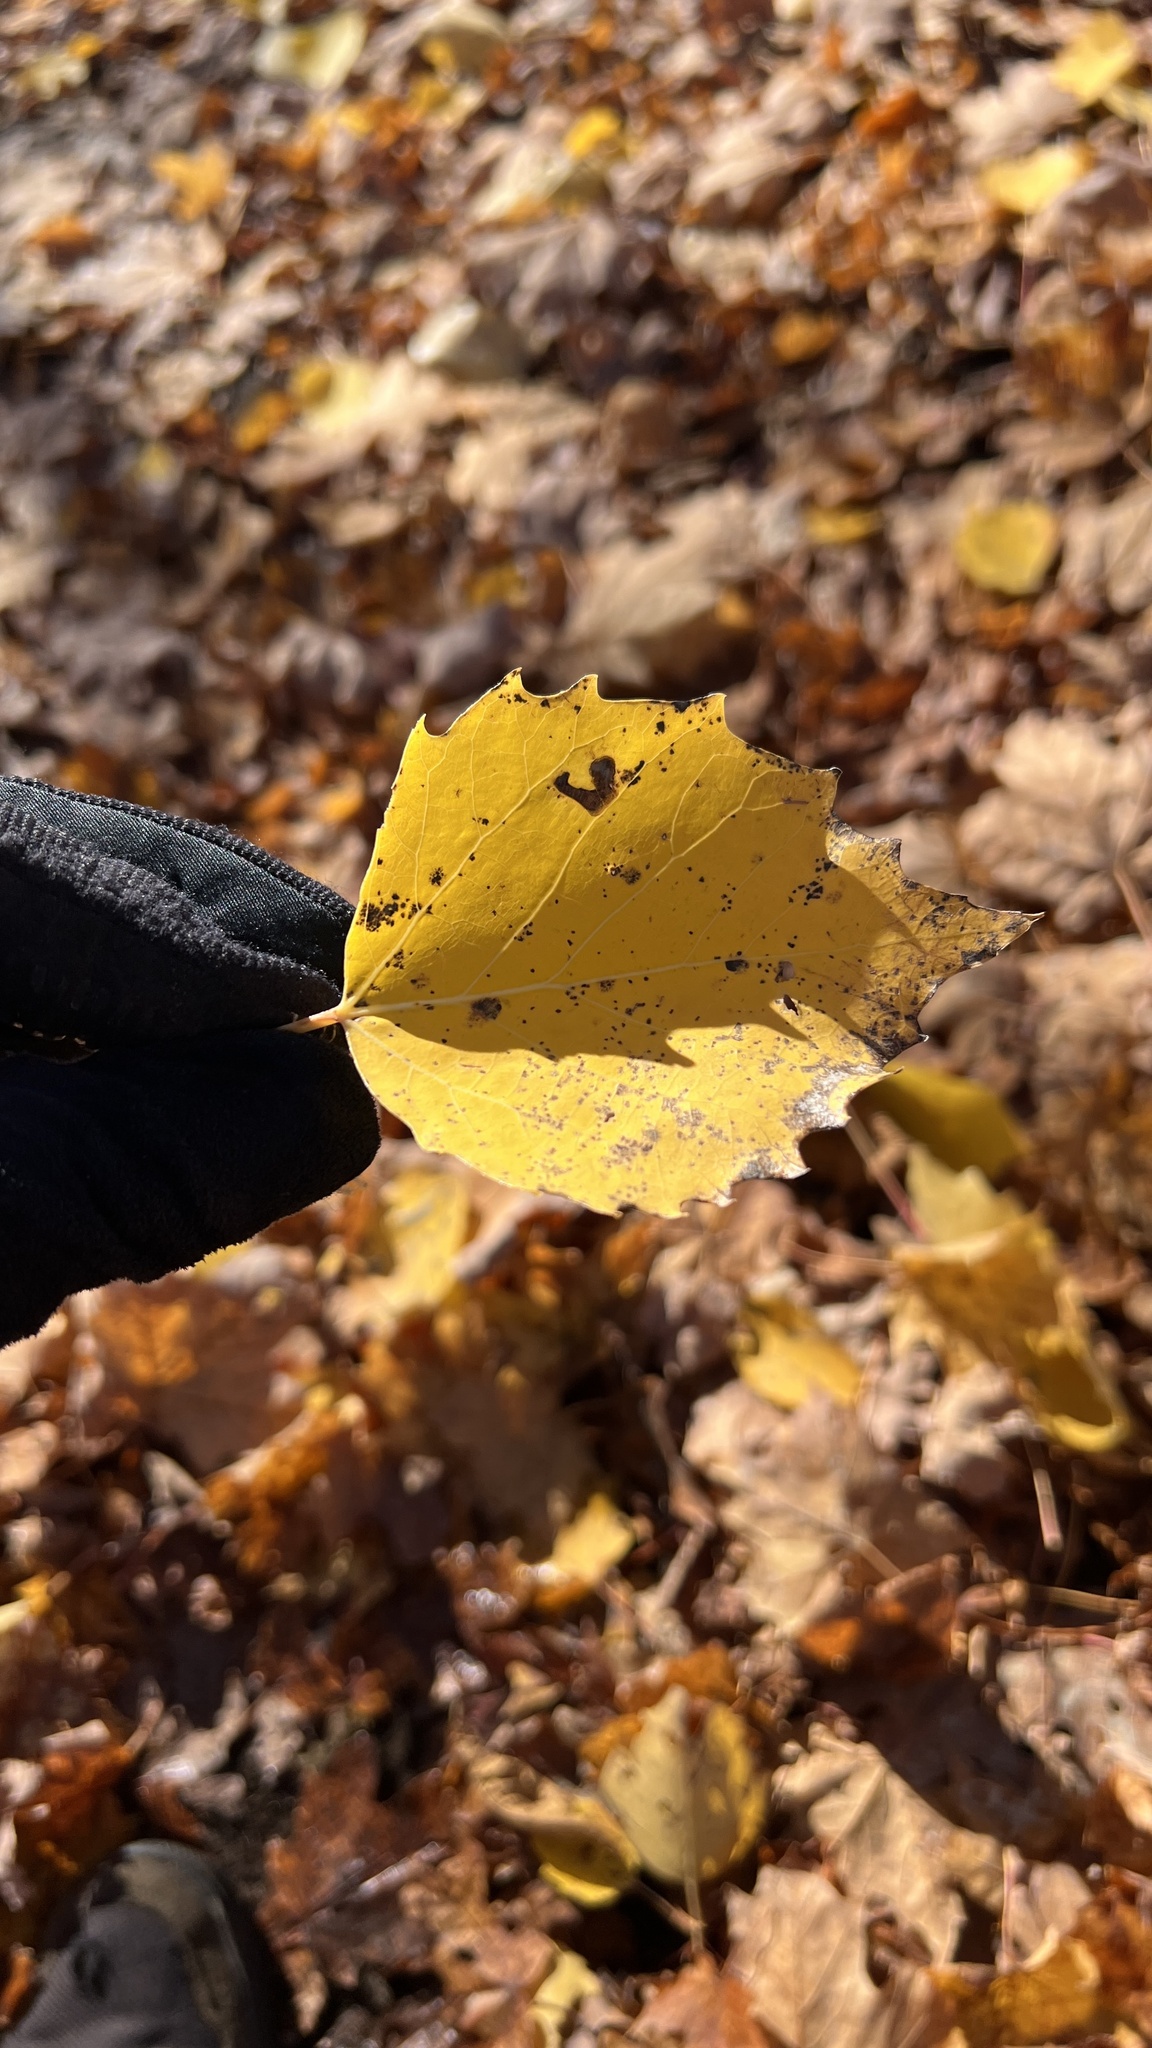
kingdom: Plantae
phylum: Tracheophyta
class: Magnoliopsida
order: Malpighiales
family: Salicaceae
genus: Populus
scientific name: Populus grandidentata
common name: Bigtooth aspen
